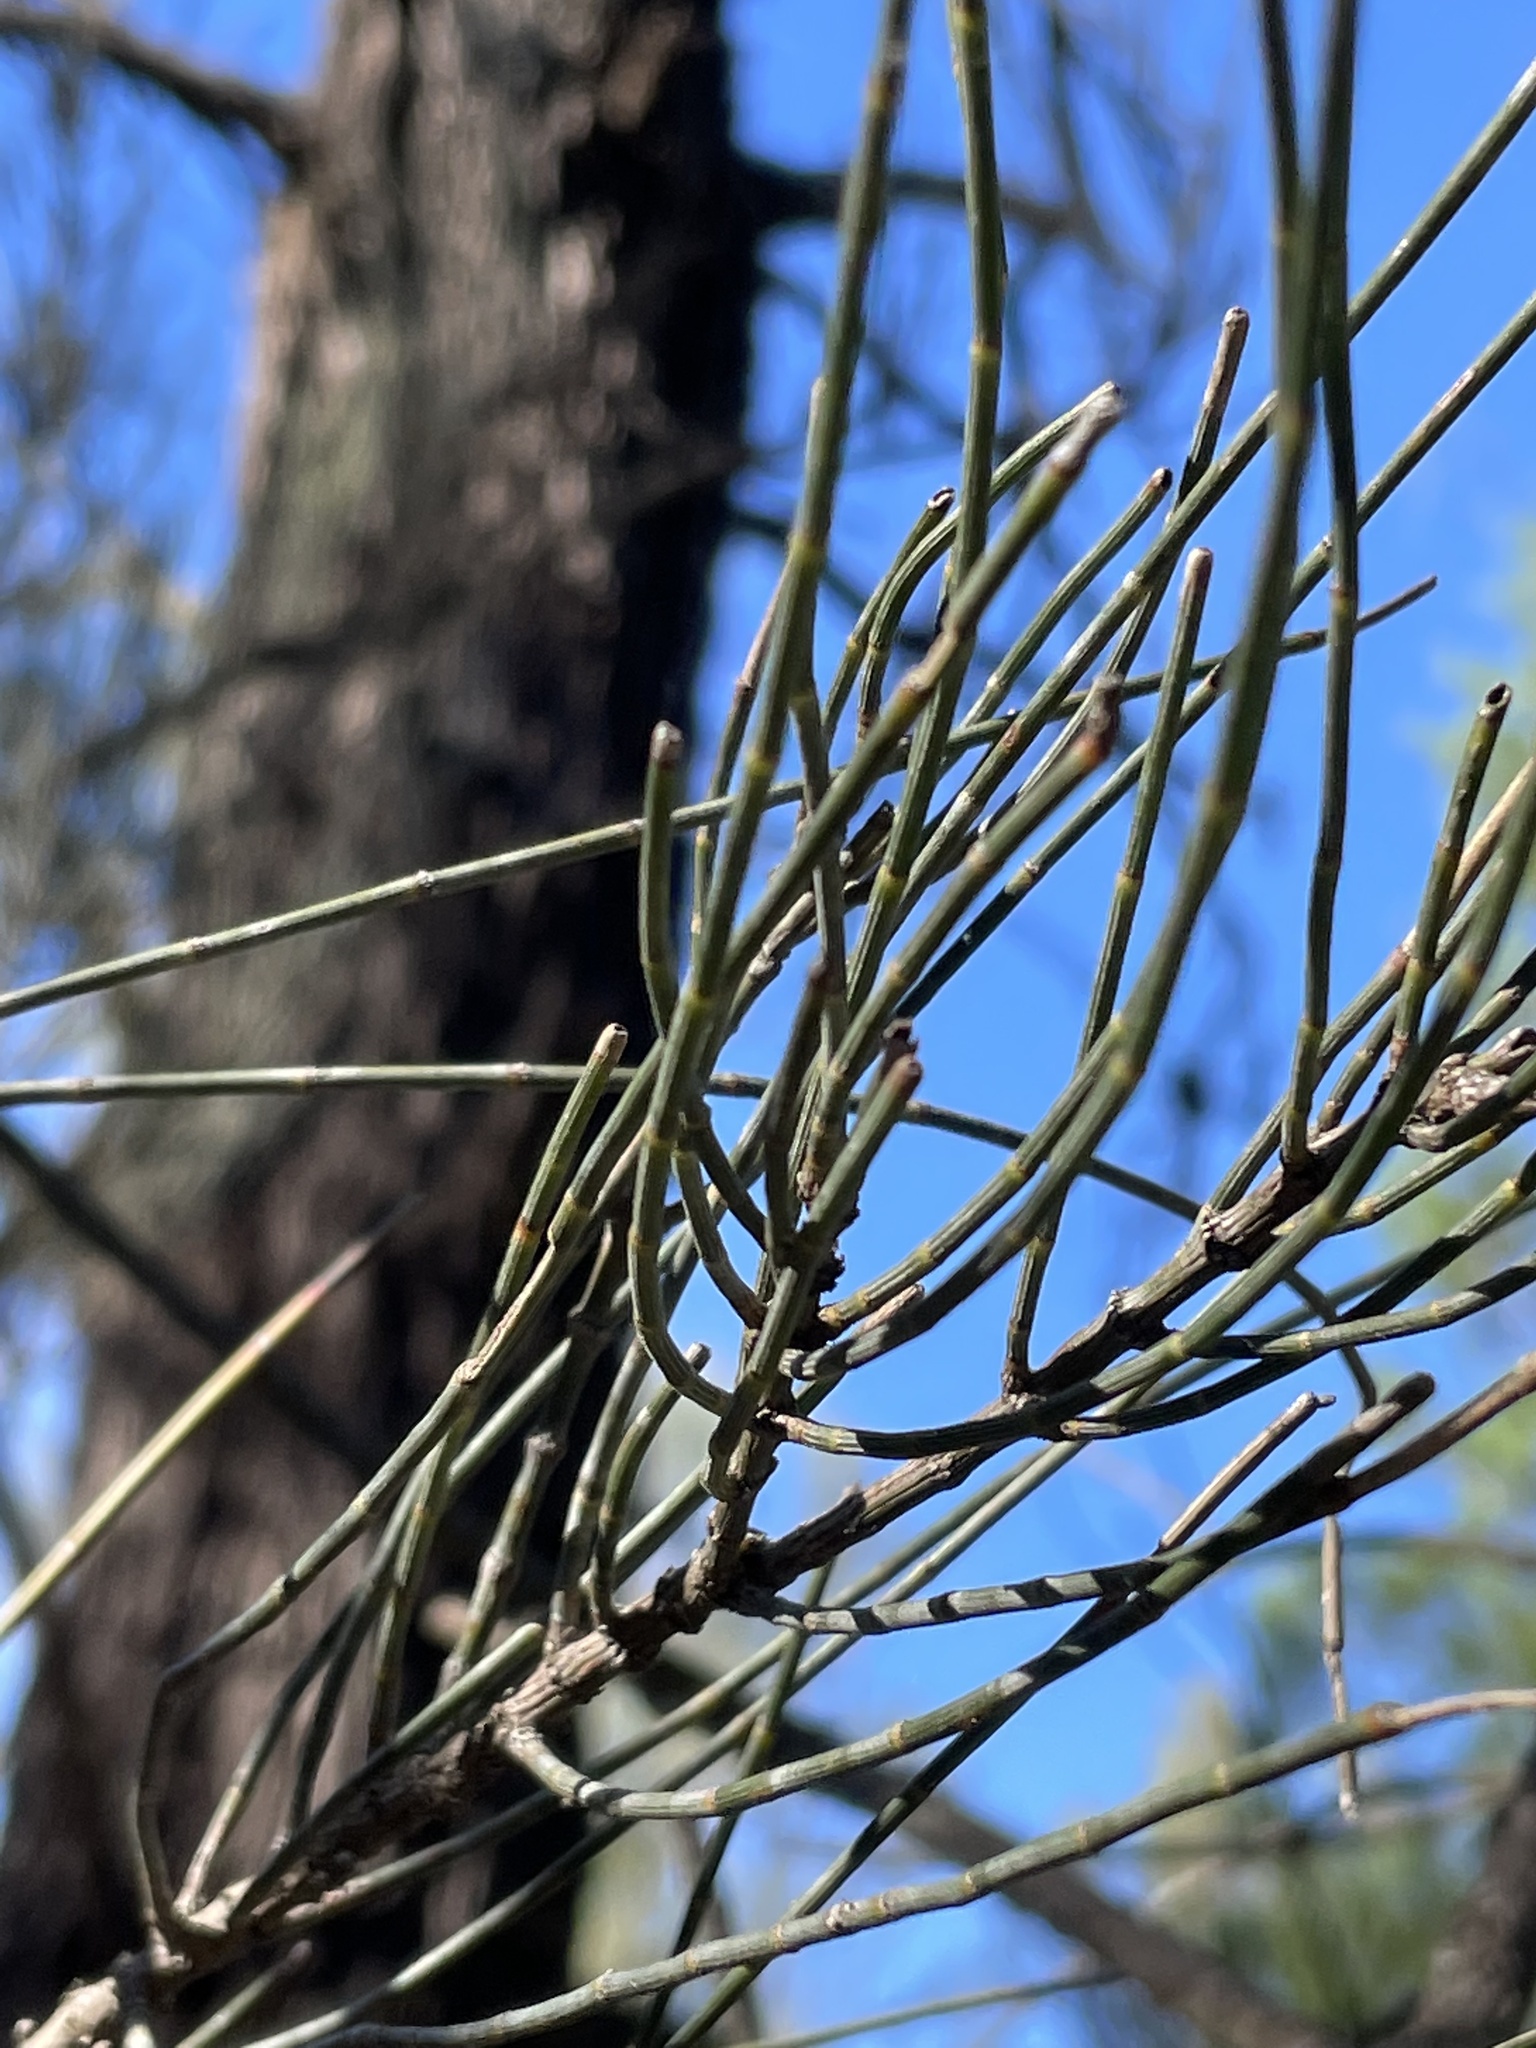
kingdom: Plantae
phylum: Tracheophyta
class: Magnoliopsida
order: Fagales
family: Casuarinaceae
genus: Allocasuarina
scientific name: Allocasuarina luehmannii
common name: Bull-oak
